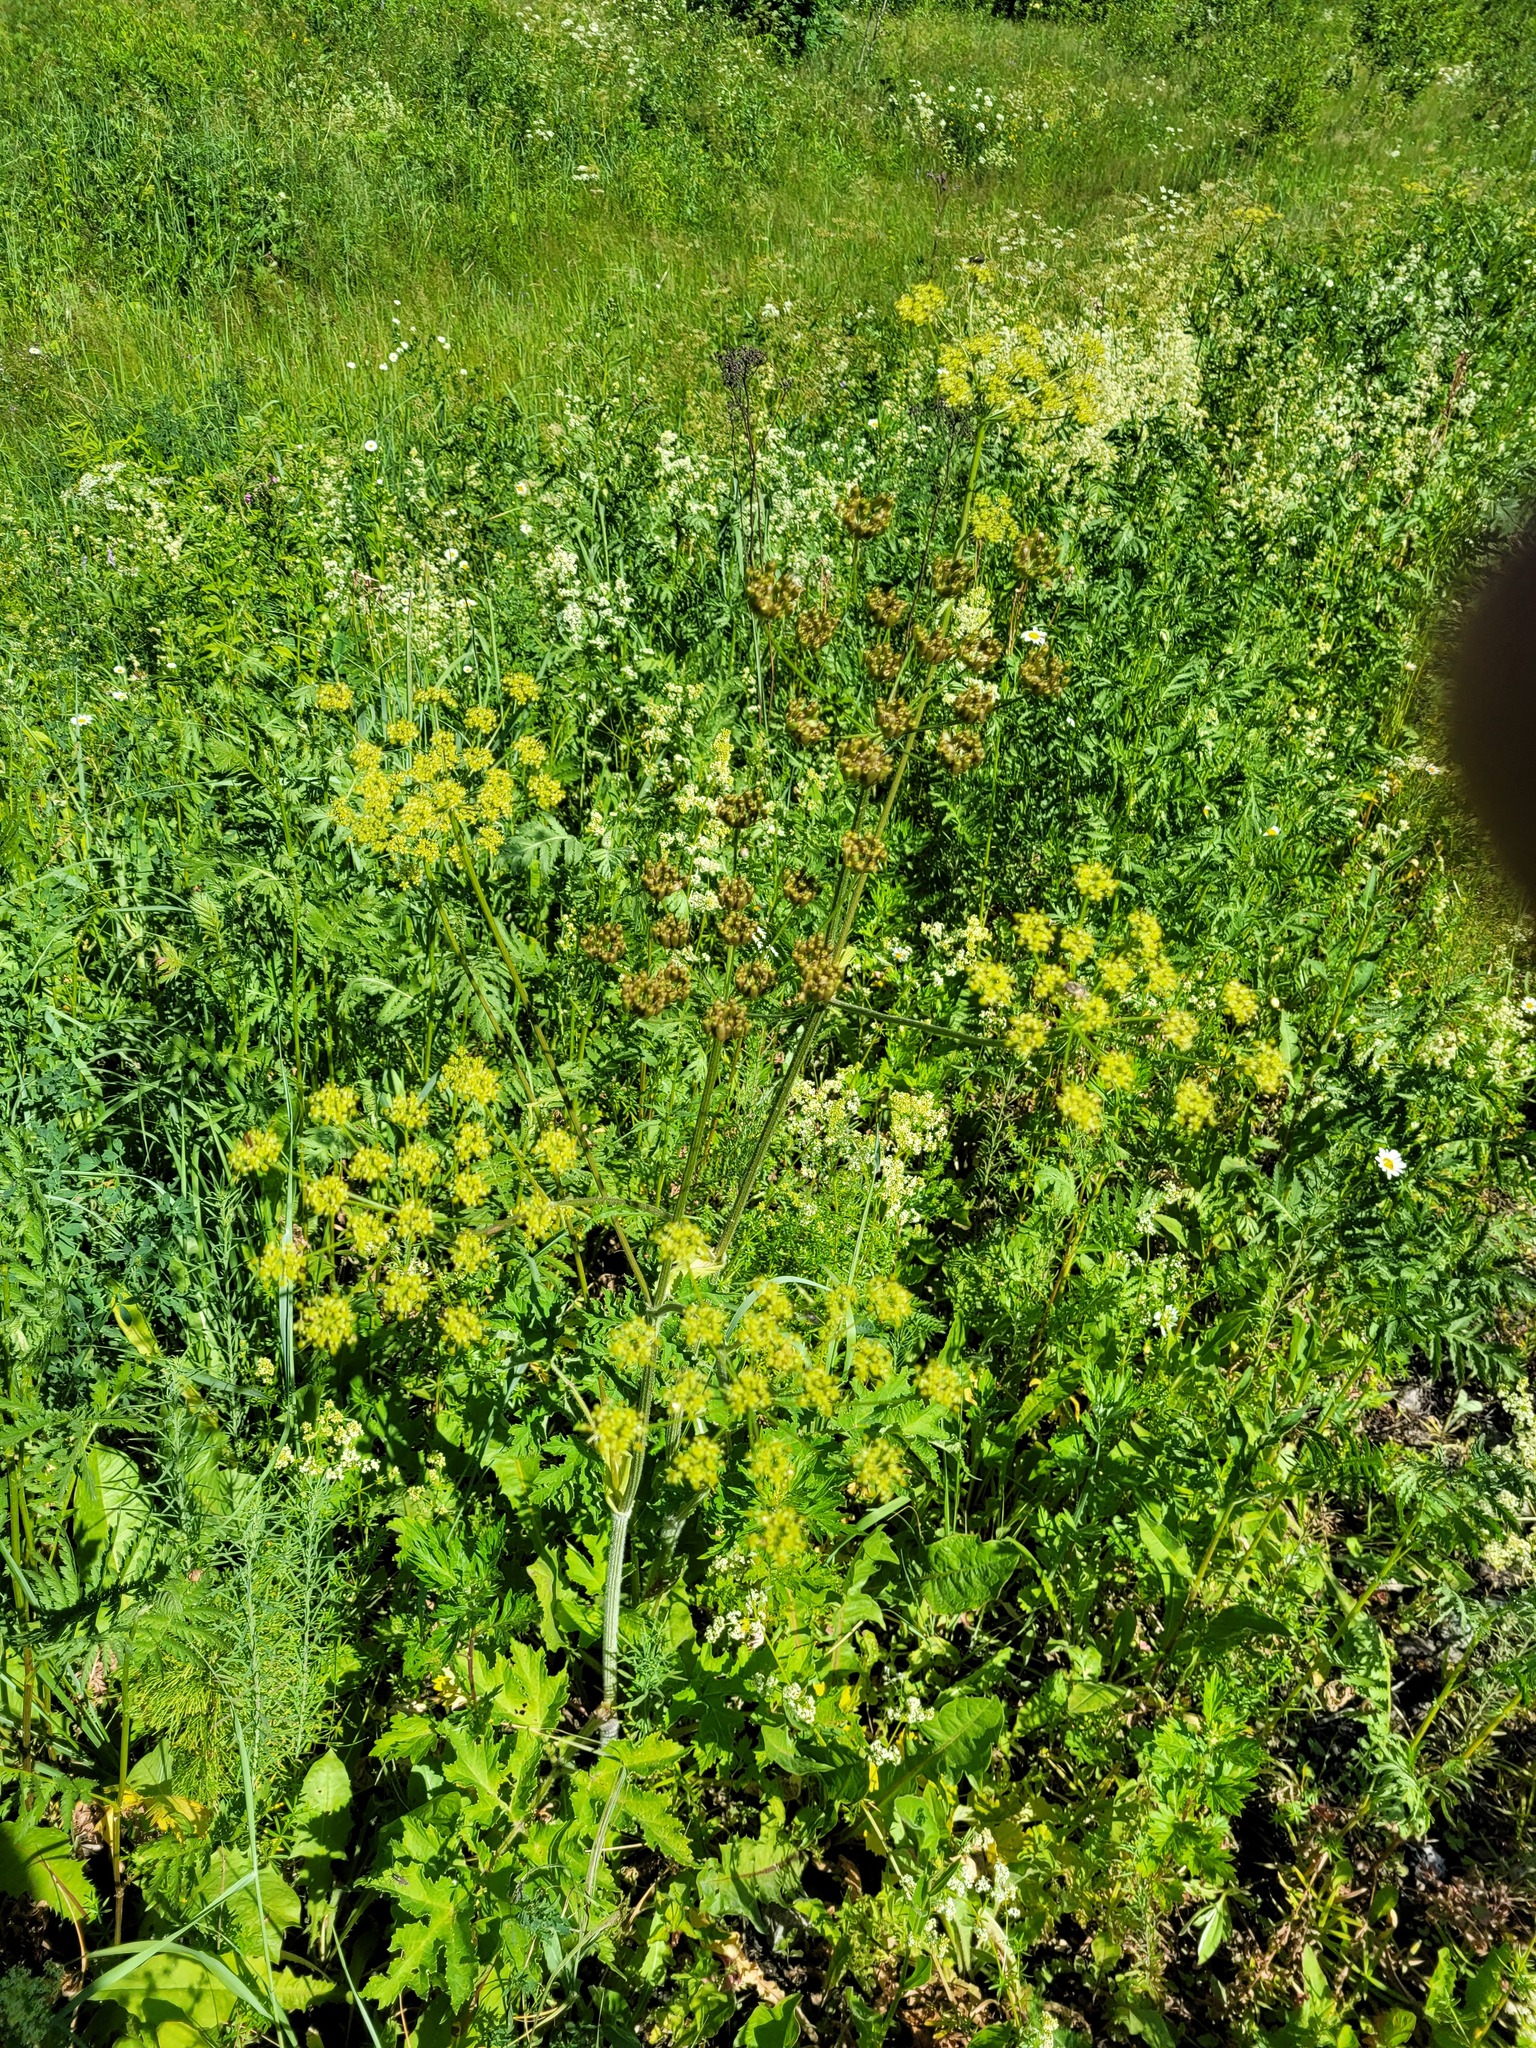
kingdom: Plantae
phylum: Tracheophyta
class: Magnoliopsida
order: Apiales
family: Apiaceae
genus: Heracleum
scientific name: Heracleum sphondylium
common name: Hogweed
